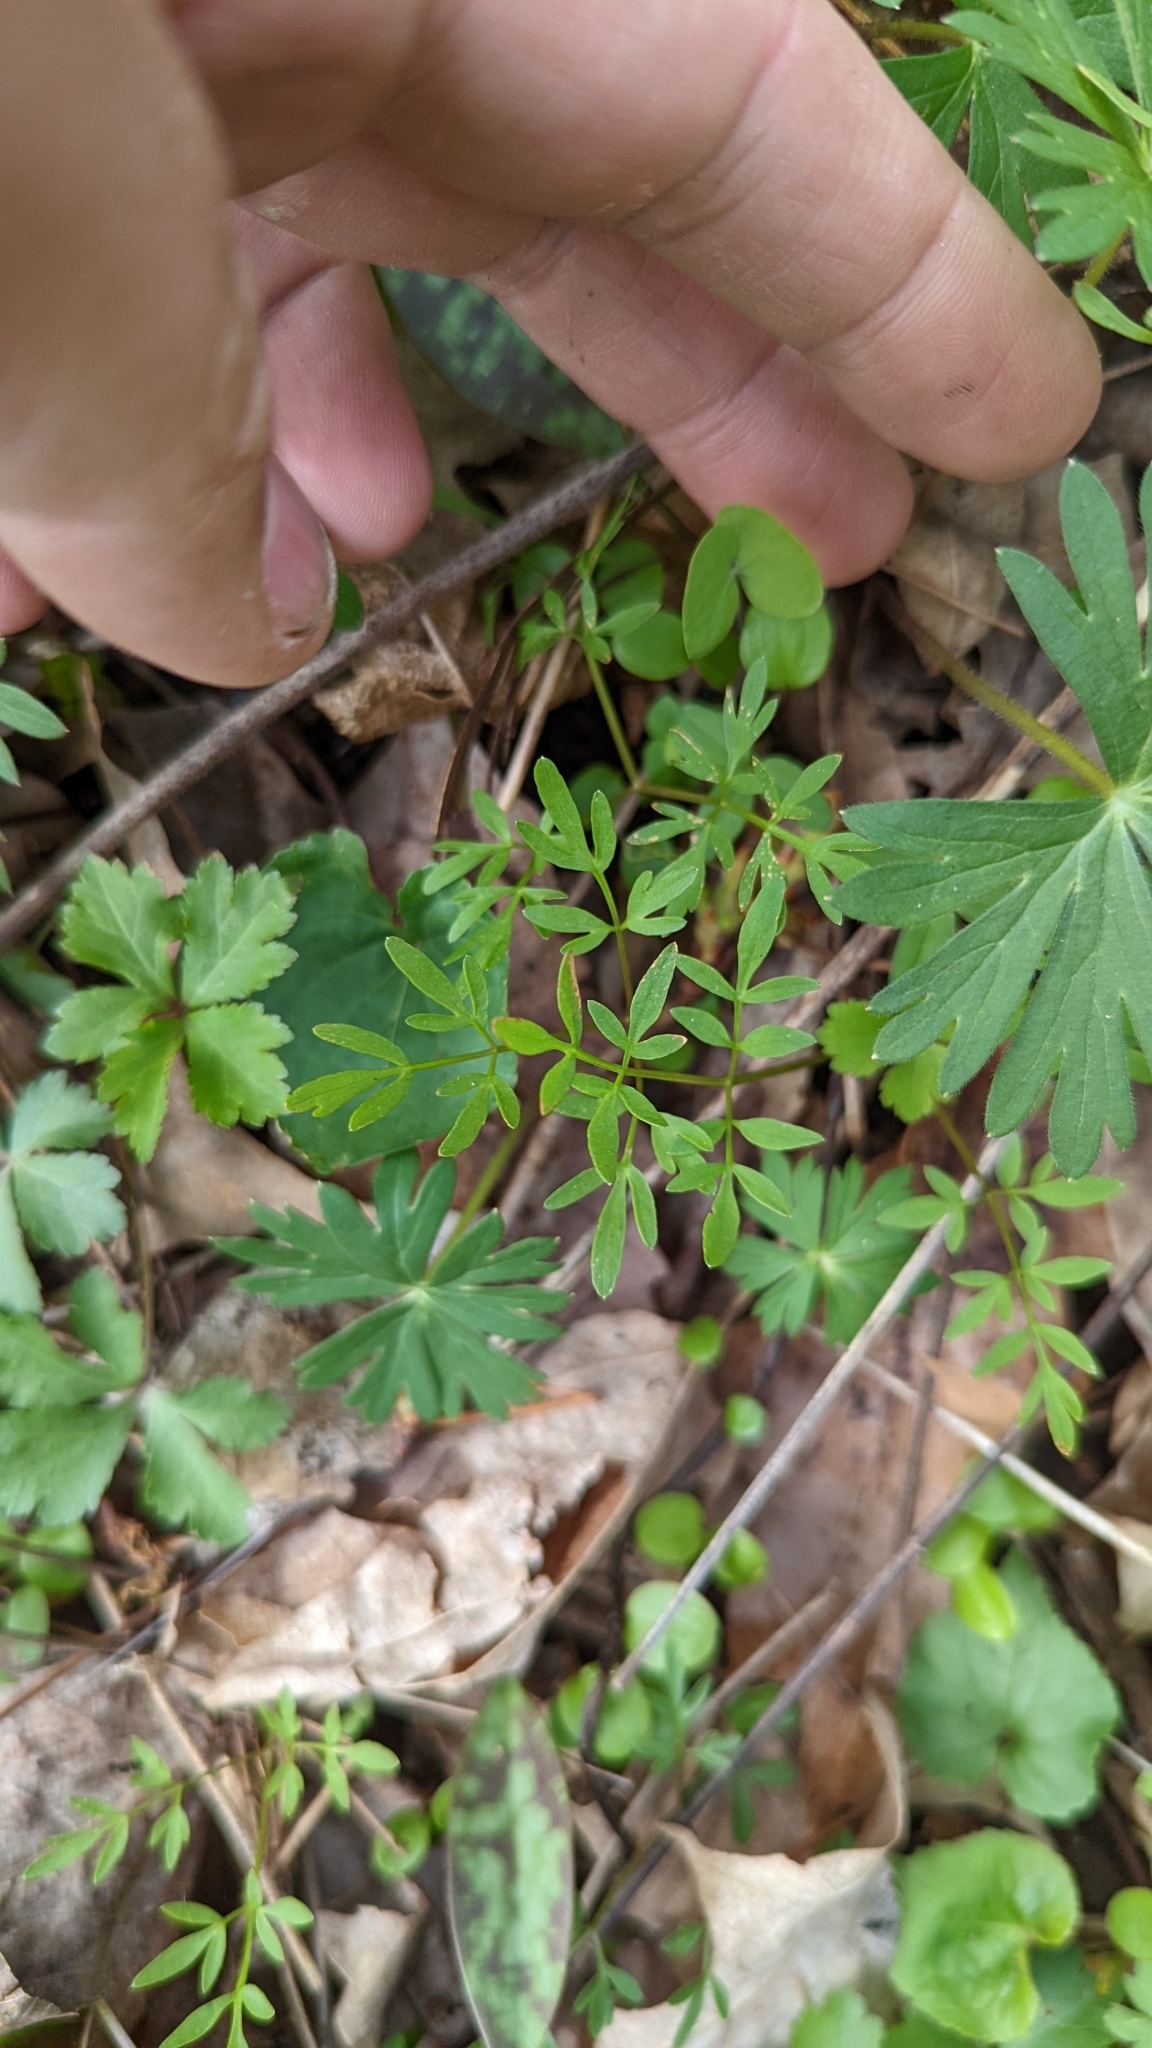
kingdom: Plantae
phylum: Tracheophyta
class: Magnoliopsida
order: Apiales
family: Apiaceae
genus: Erigenia
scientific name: Erigenia bulbosa
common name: Pepper-and-salt
